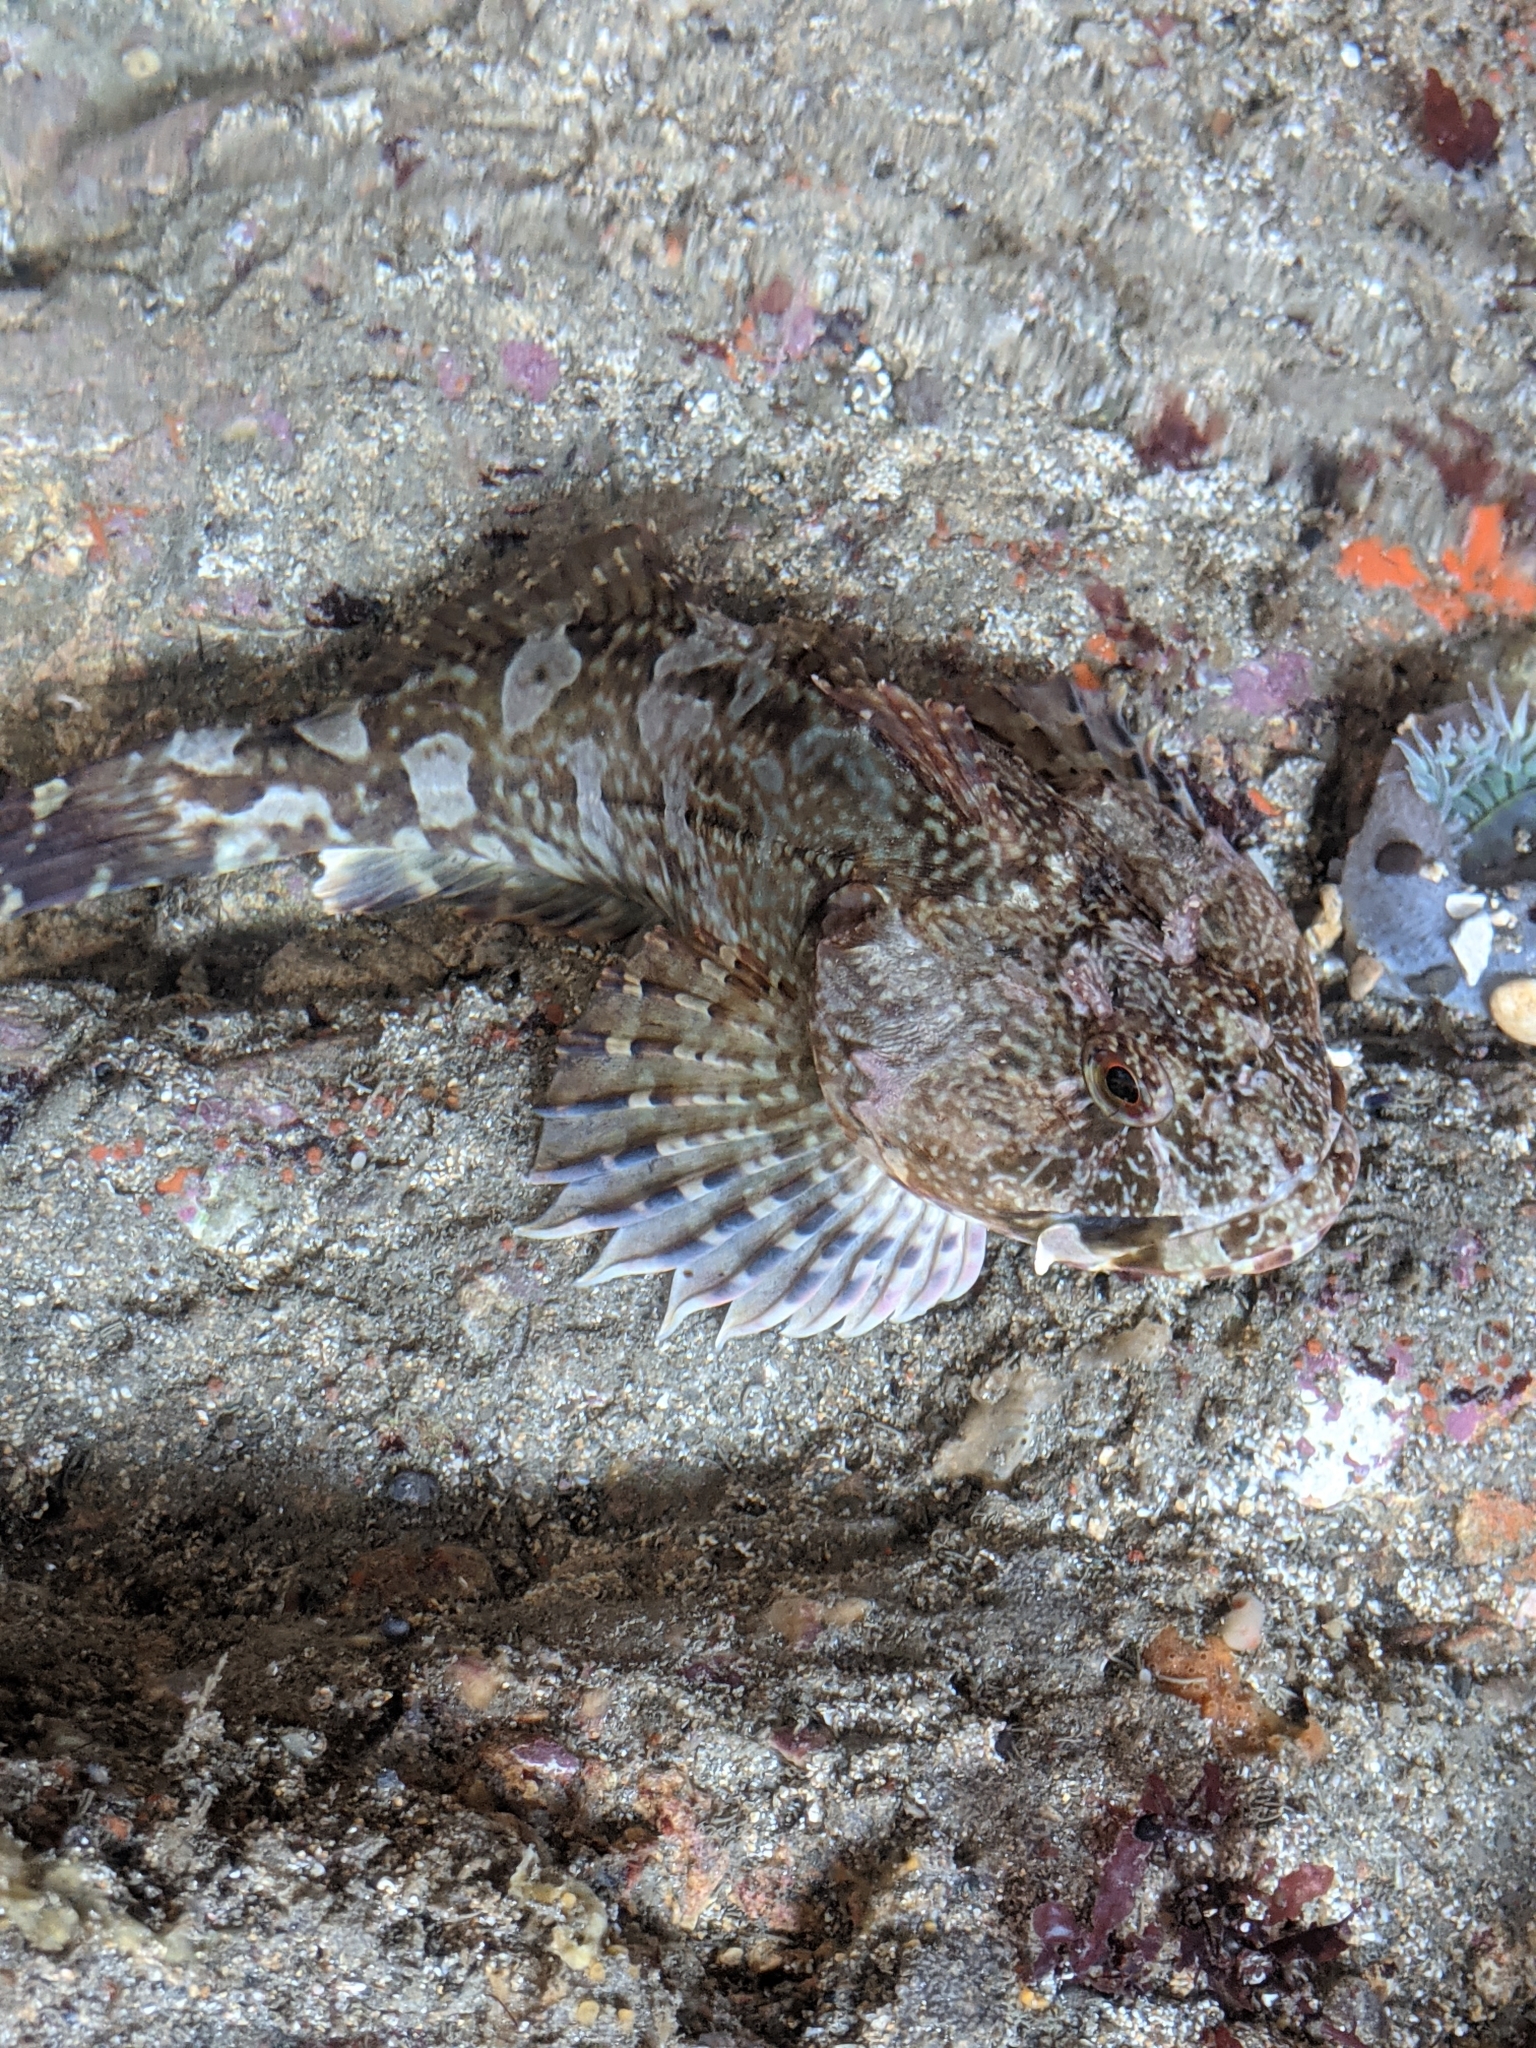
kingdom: Animalia
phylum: Chordata
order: Scorpaeniformes
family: Cottidae
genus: Scorpaenichthys
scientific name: Scorpaenichthys marmoratus
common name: Cabezon
